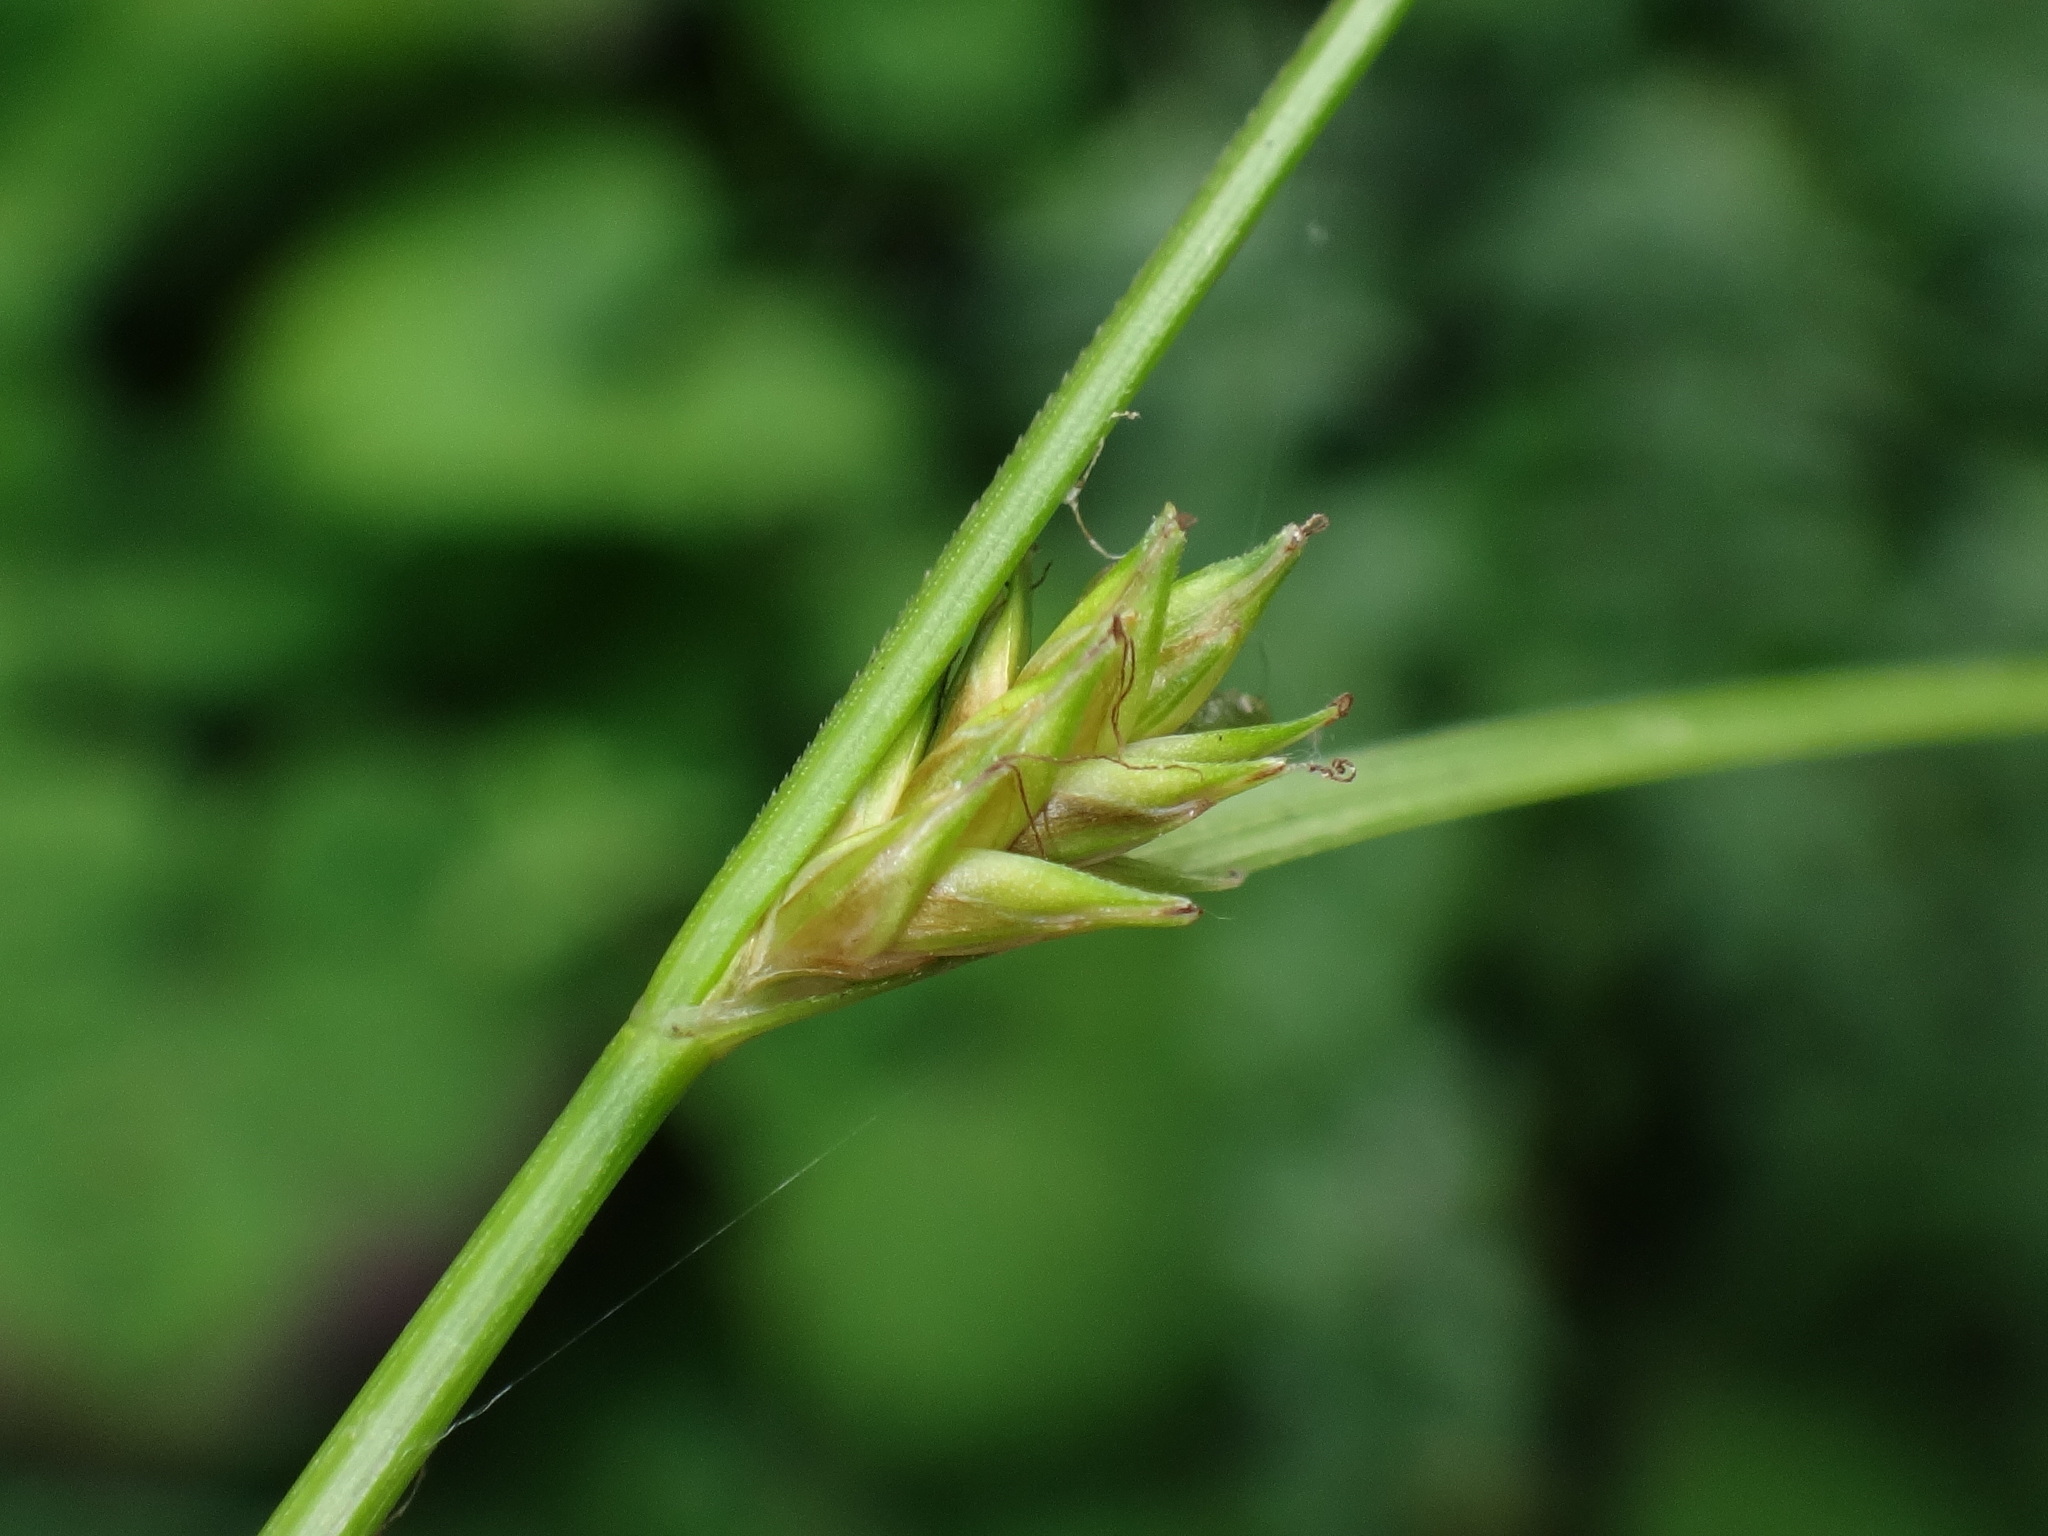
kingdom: Plantae
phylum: Tracheophyta
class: Liliopsida
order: Poales
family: Cyperaceae
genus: Carex
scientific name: Carex remota
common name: Remote sedge
